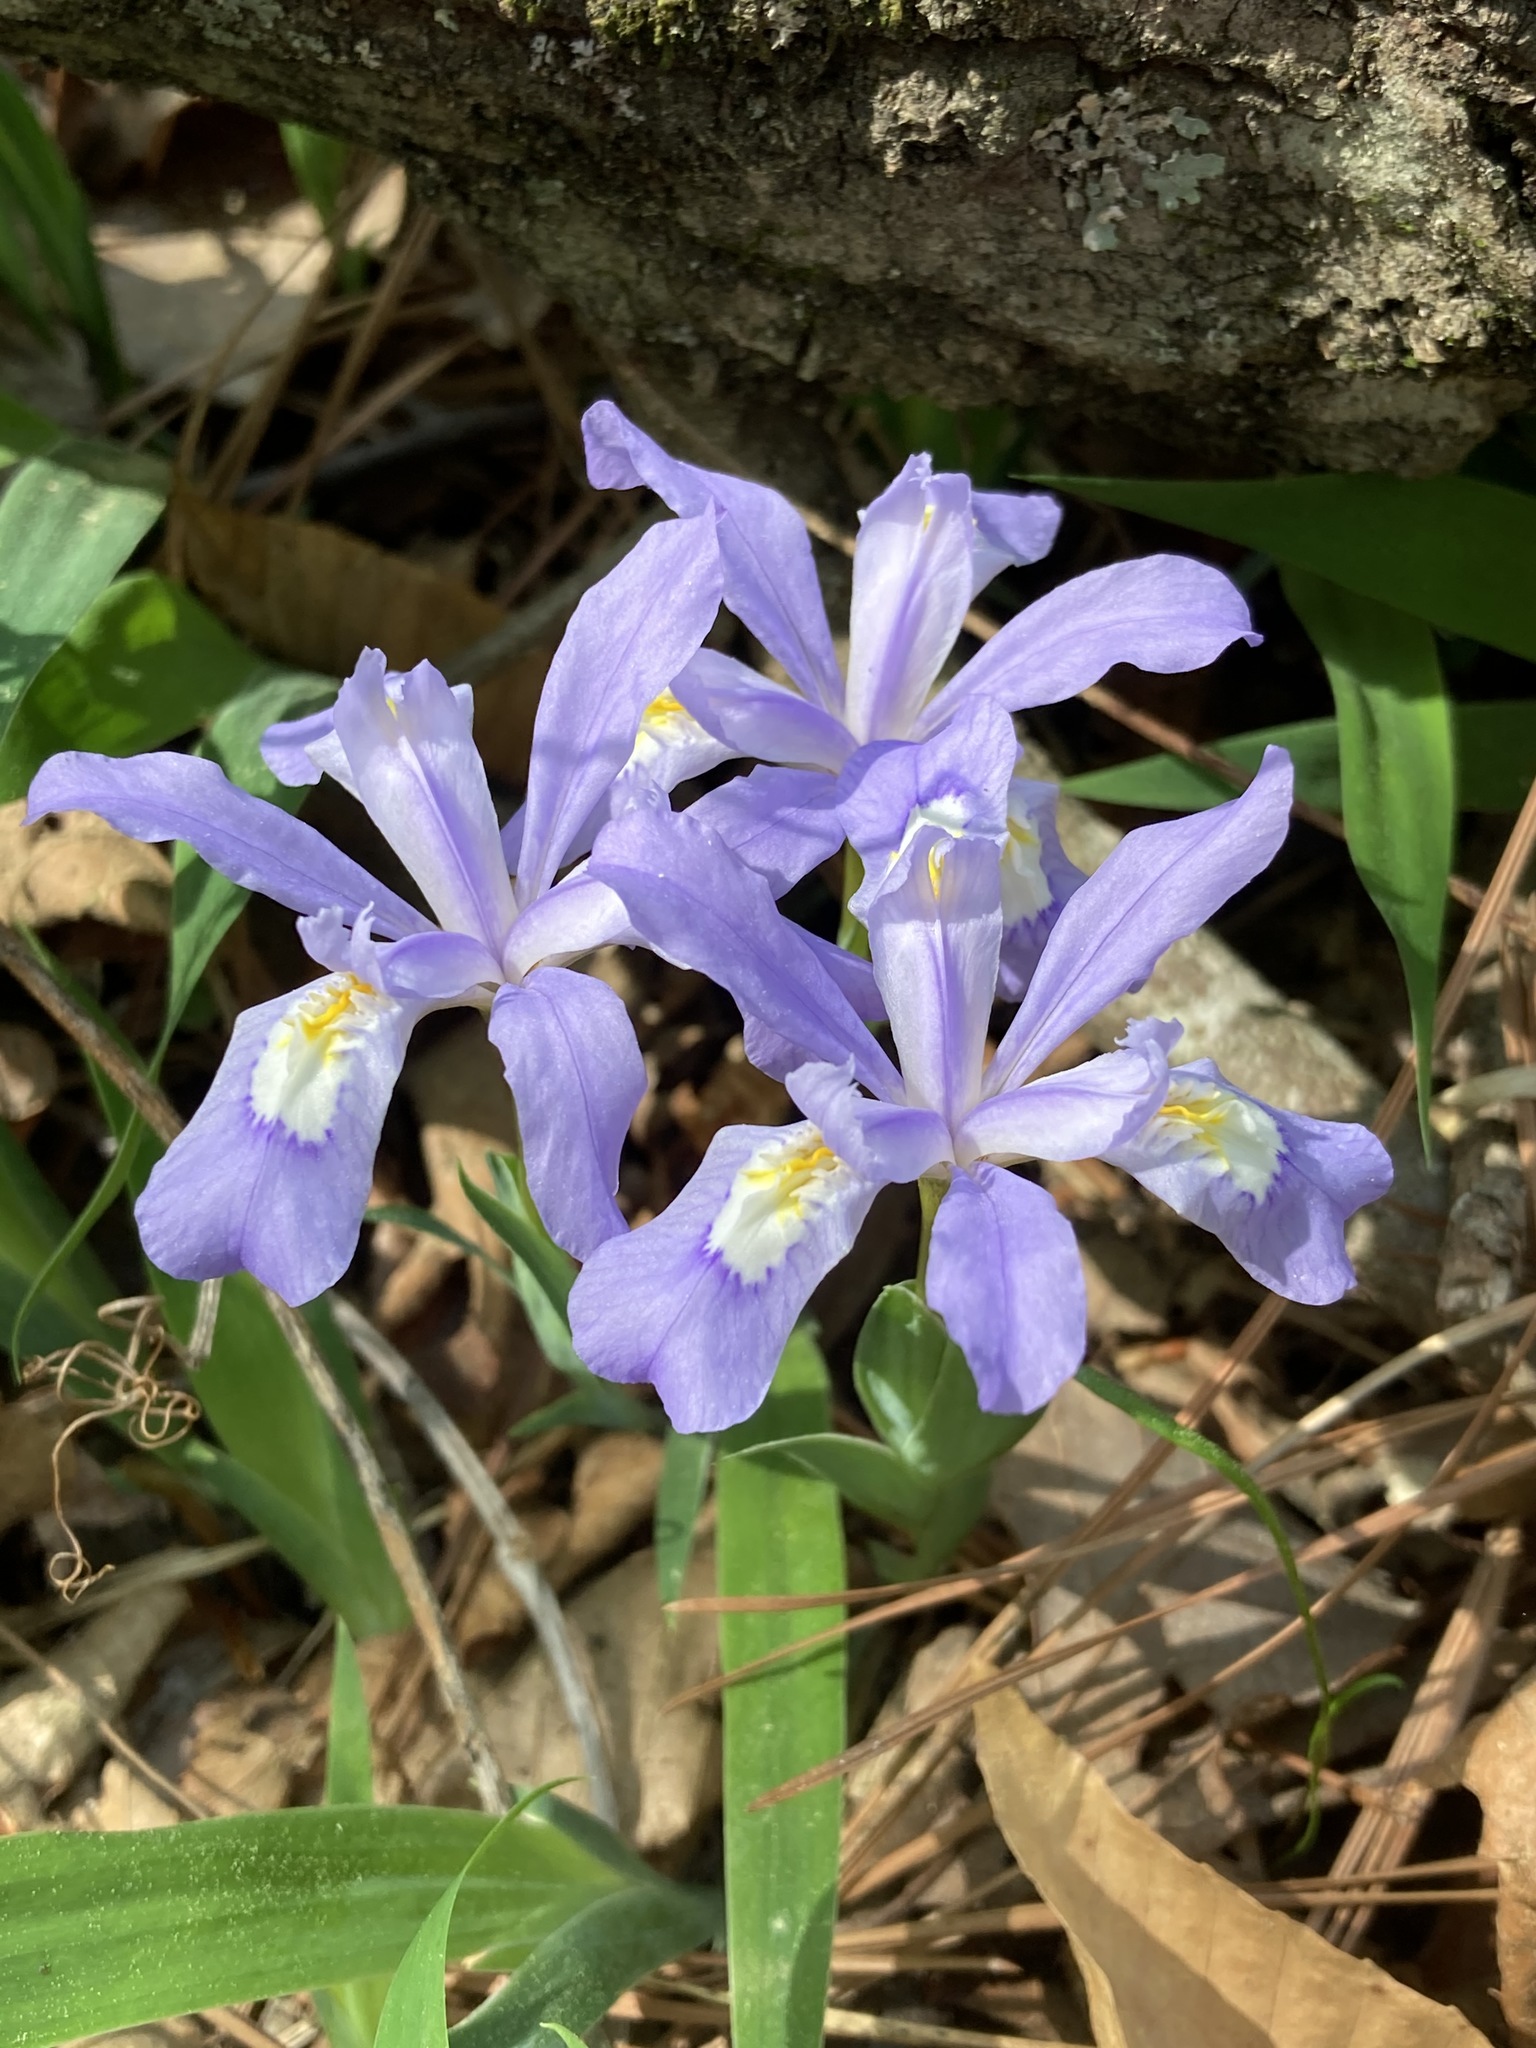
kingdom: Plantae
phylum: Tracheophyta
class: Liliopsida
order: Asparagales
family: Iridaceae
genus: Iris
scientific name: Iris cristata
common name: Crested iris
